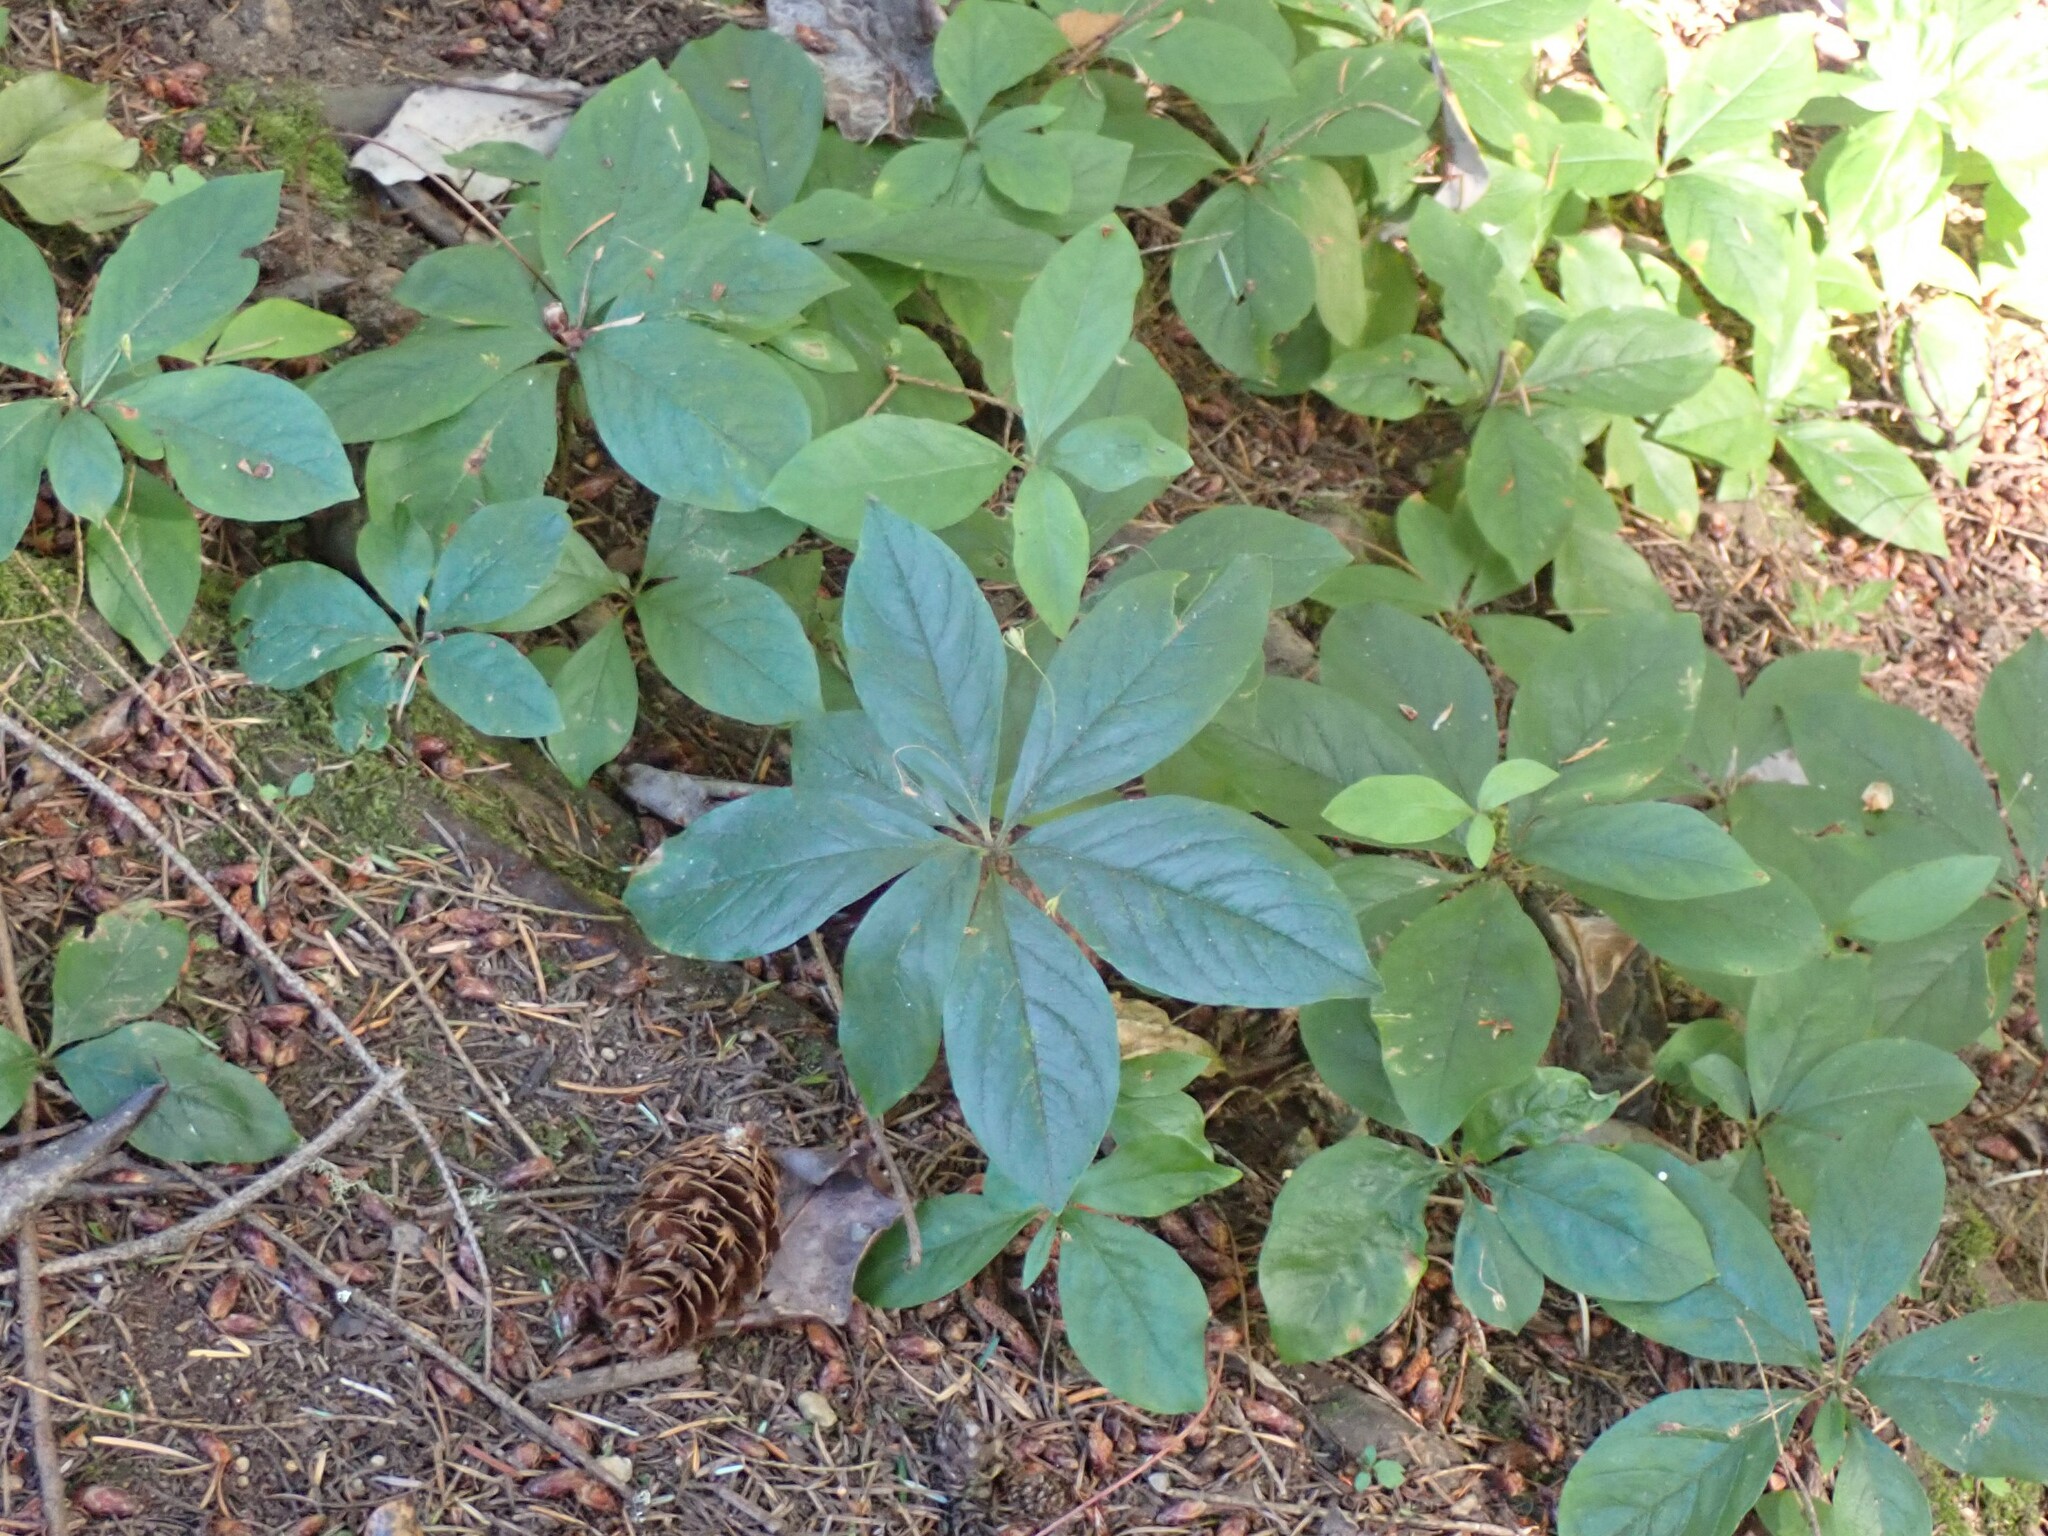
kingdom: Plantae
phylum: Tracheophyta
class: Magnoliopsida
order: Ericales
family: Primulaceae
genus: Lysimachia
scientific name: Lysimachia latifolia
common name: Pacific starflower
